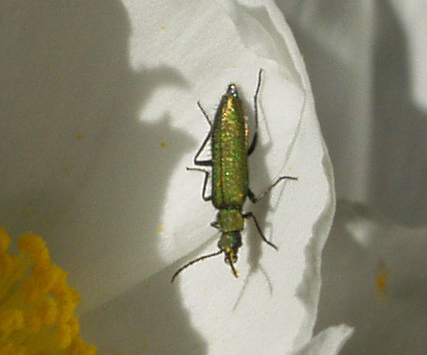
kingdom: Animalia
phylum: Arthropoda
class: Insecta
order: Coleoptera
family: Stenotrachelidae
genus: Stenotrachelus
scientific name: Stenotrachelus aeneus
